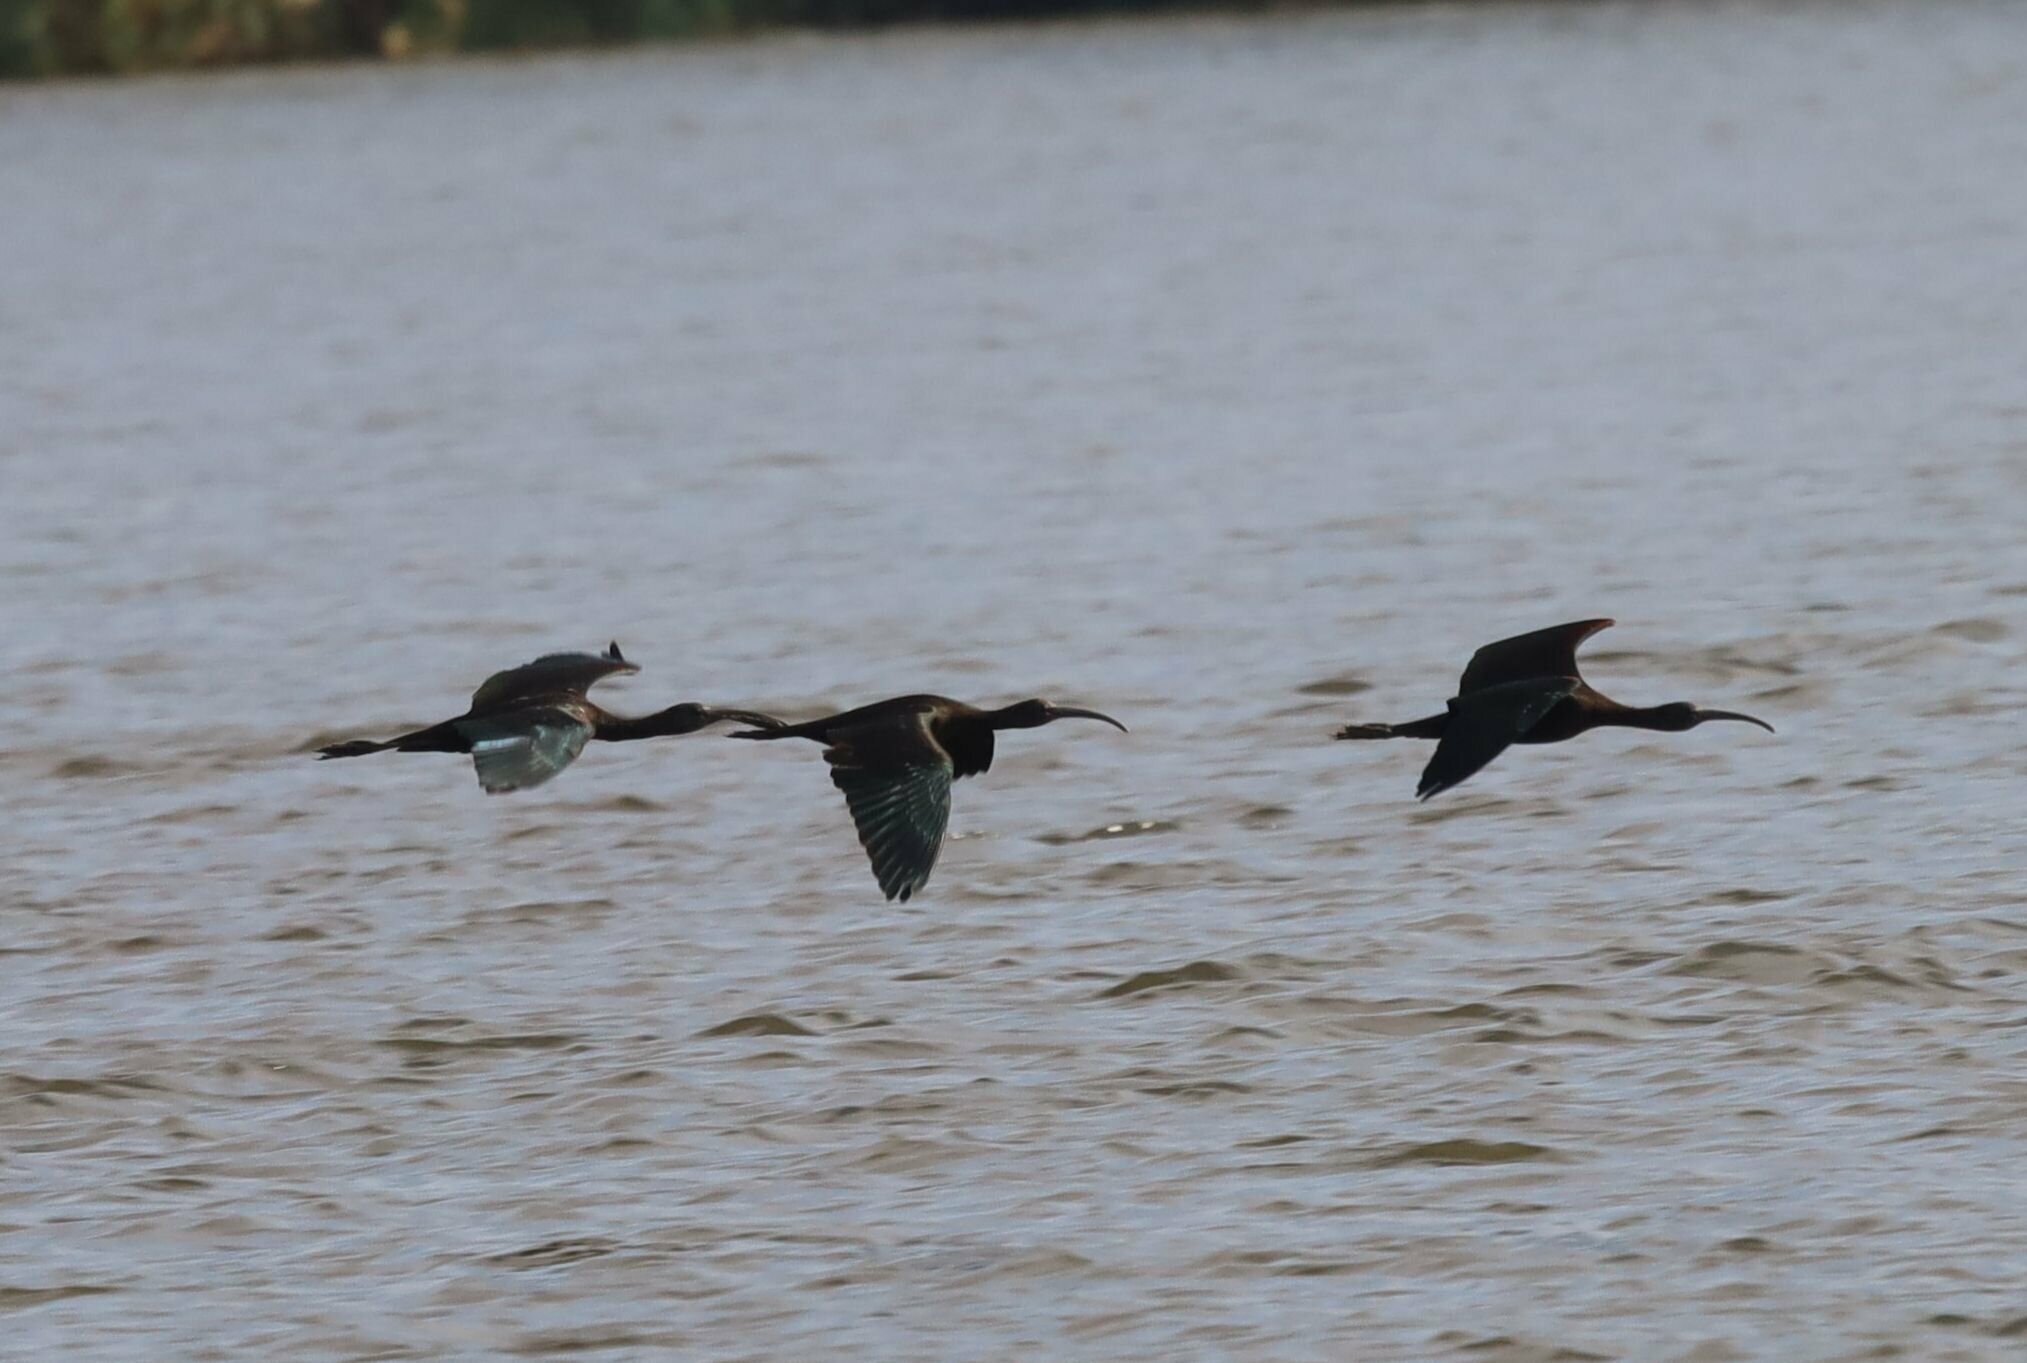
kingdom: Animalia
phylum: Chordata
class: Aves
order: Pelecaniformes
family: Threskiornithidae
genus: Plegadis
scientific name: Plegadis falcinellus
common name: Glossy ibis
